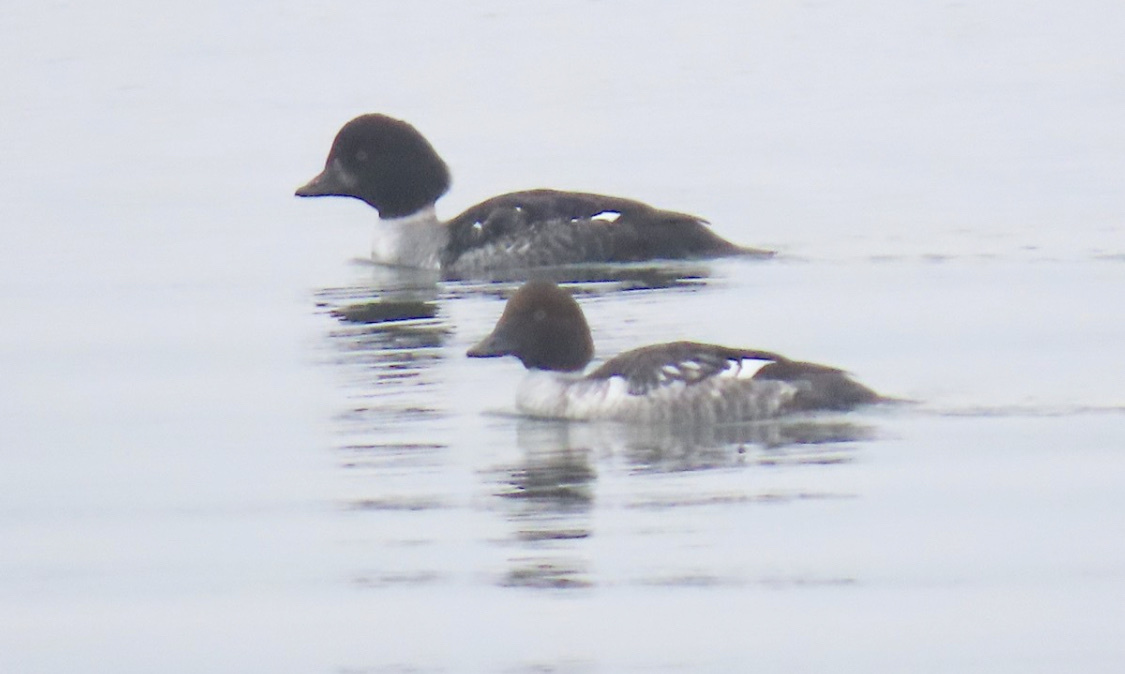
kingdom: Animalia
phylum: Chordata
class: Aves
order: Anseriformes
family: Anatidae
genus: Bucephala
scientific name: Bucephala islandica
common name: Barrow's goldeneye
